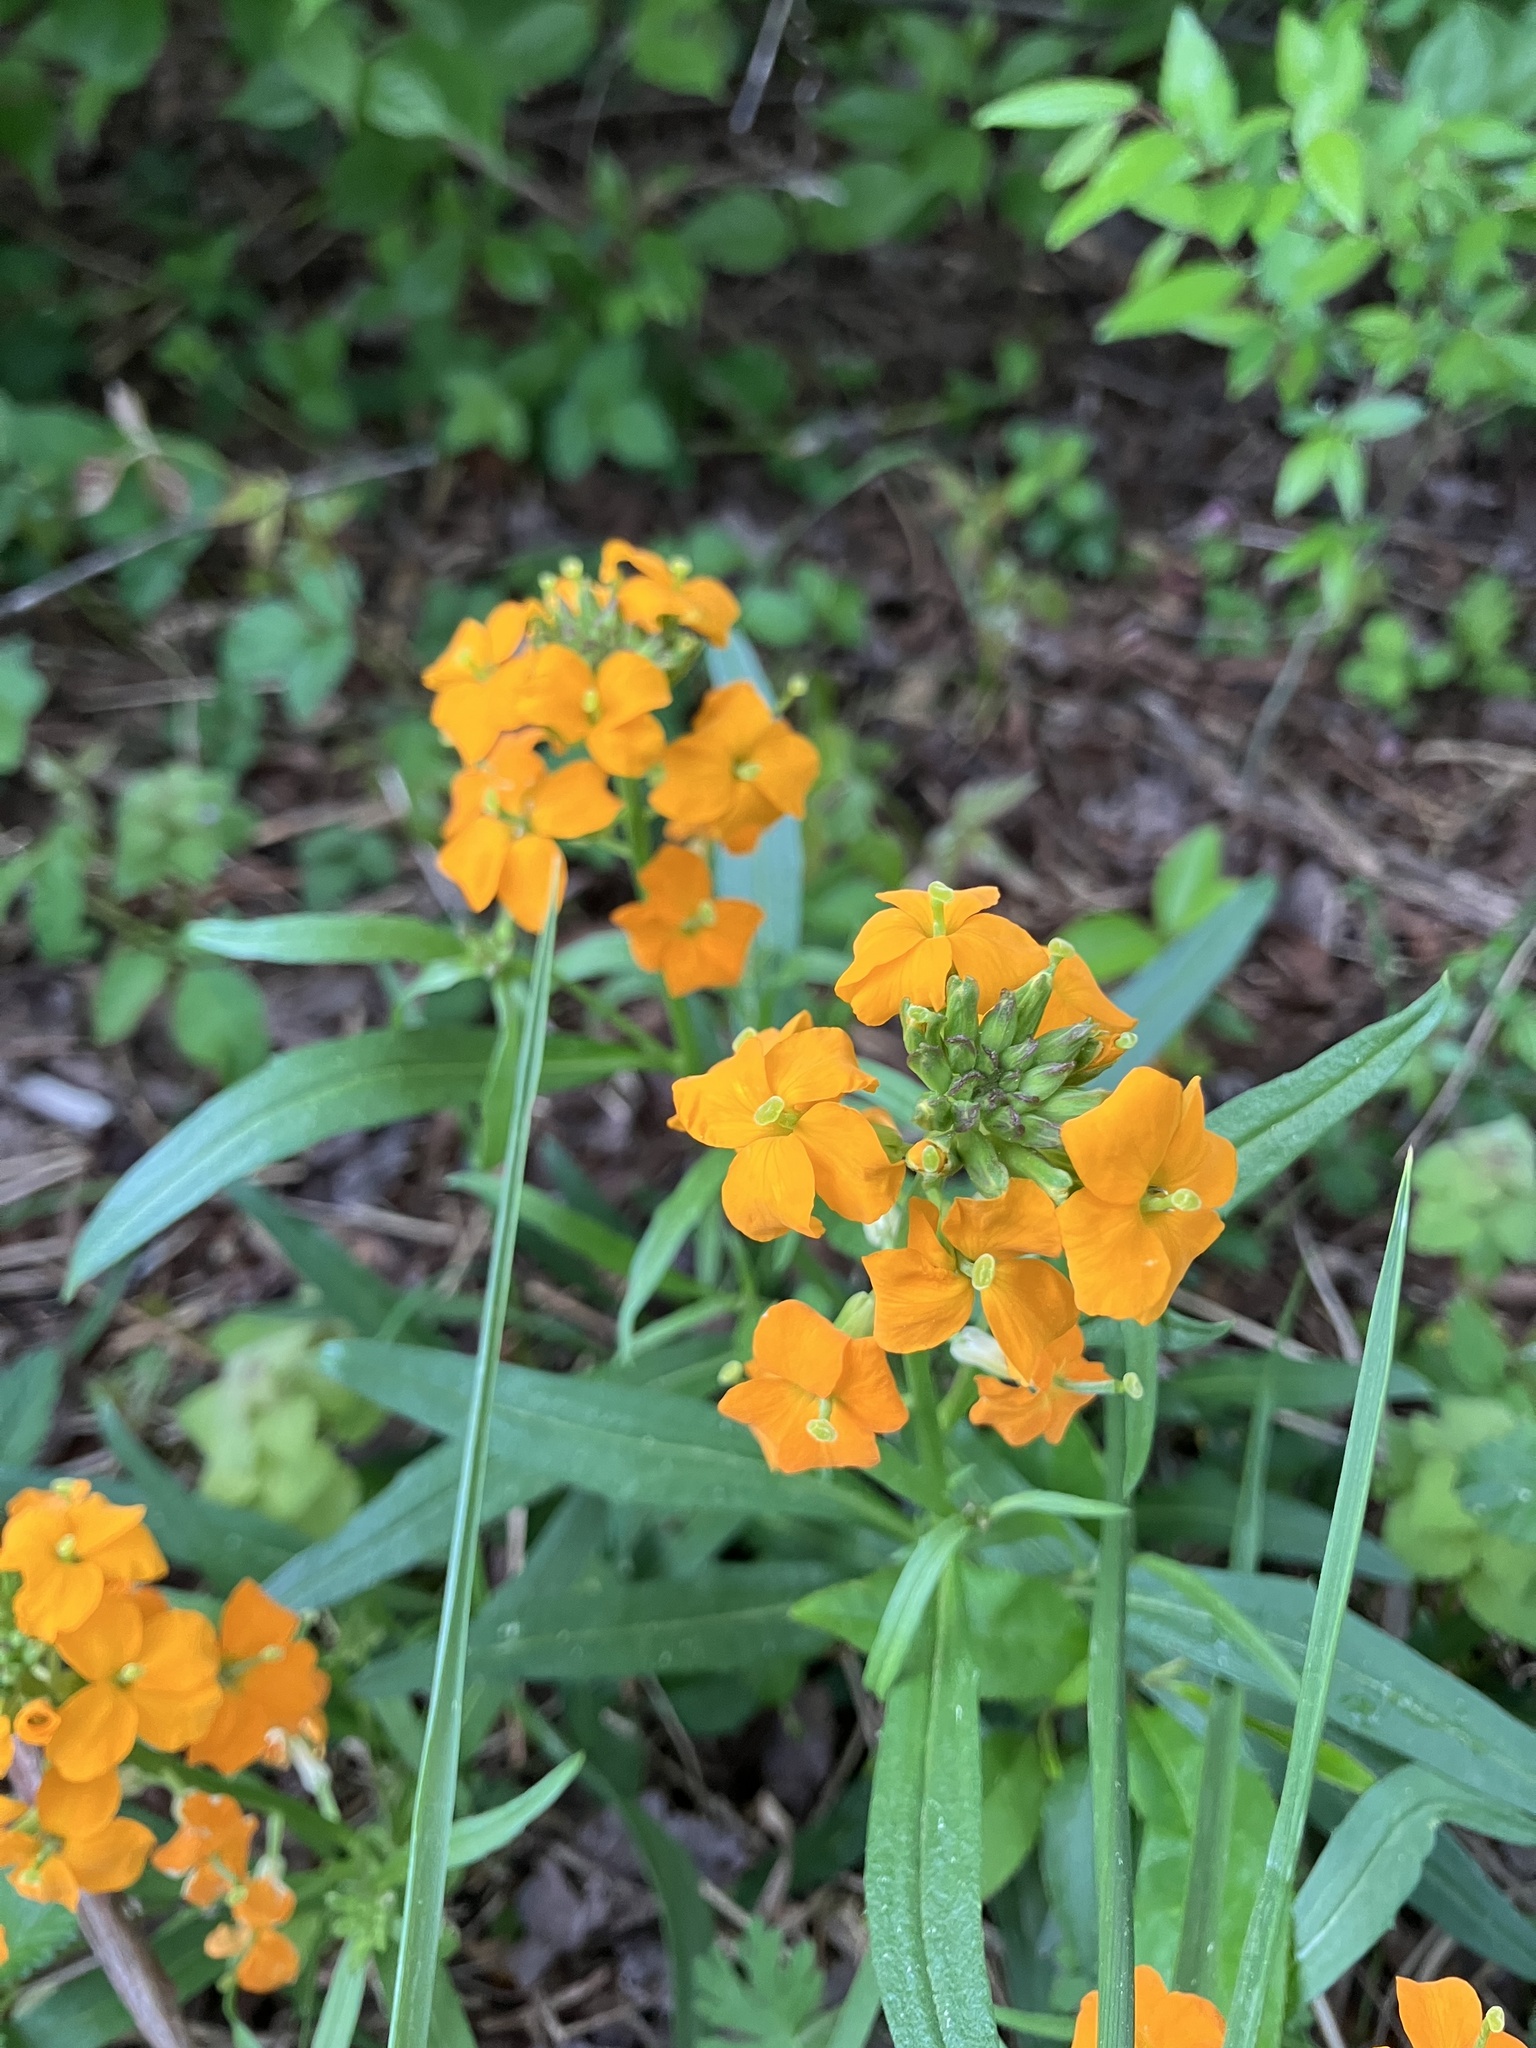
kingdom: Plantae
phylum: Tracheophyta
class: Magnoliopsida
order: Brassicales
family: Brassicaceae
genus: Erysimum
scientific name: Erysimum capitatum
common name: Western wallflower
